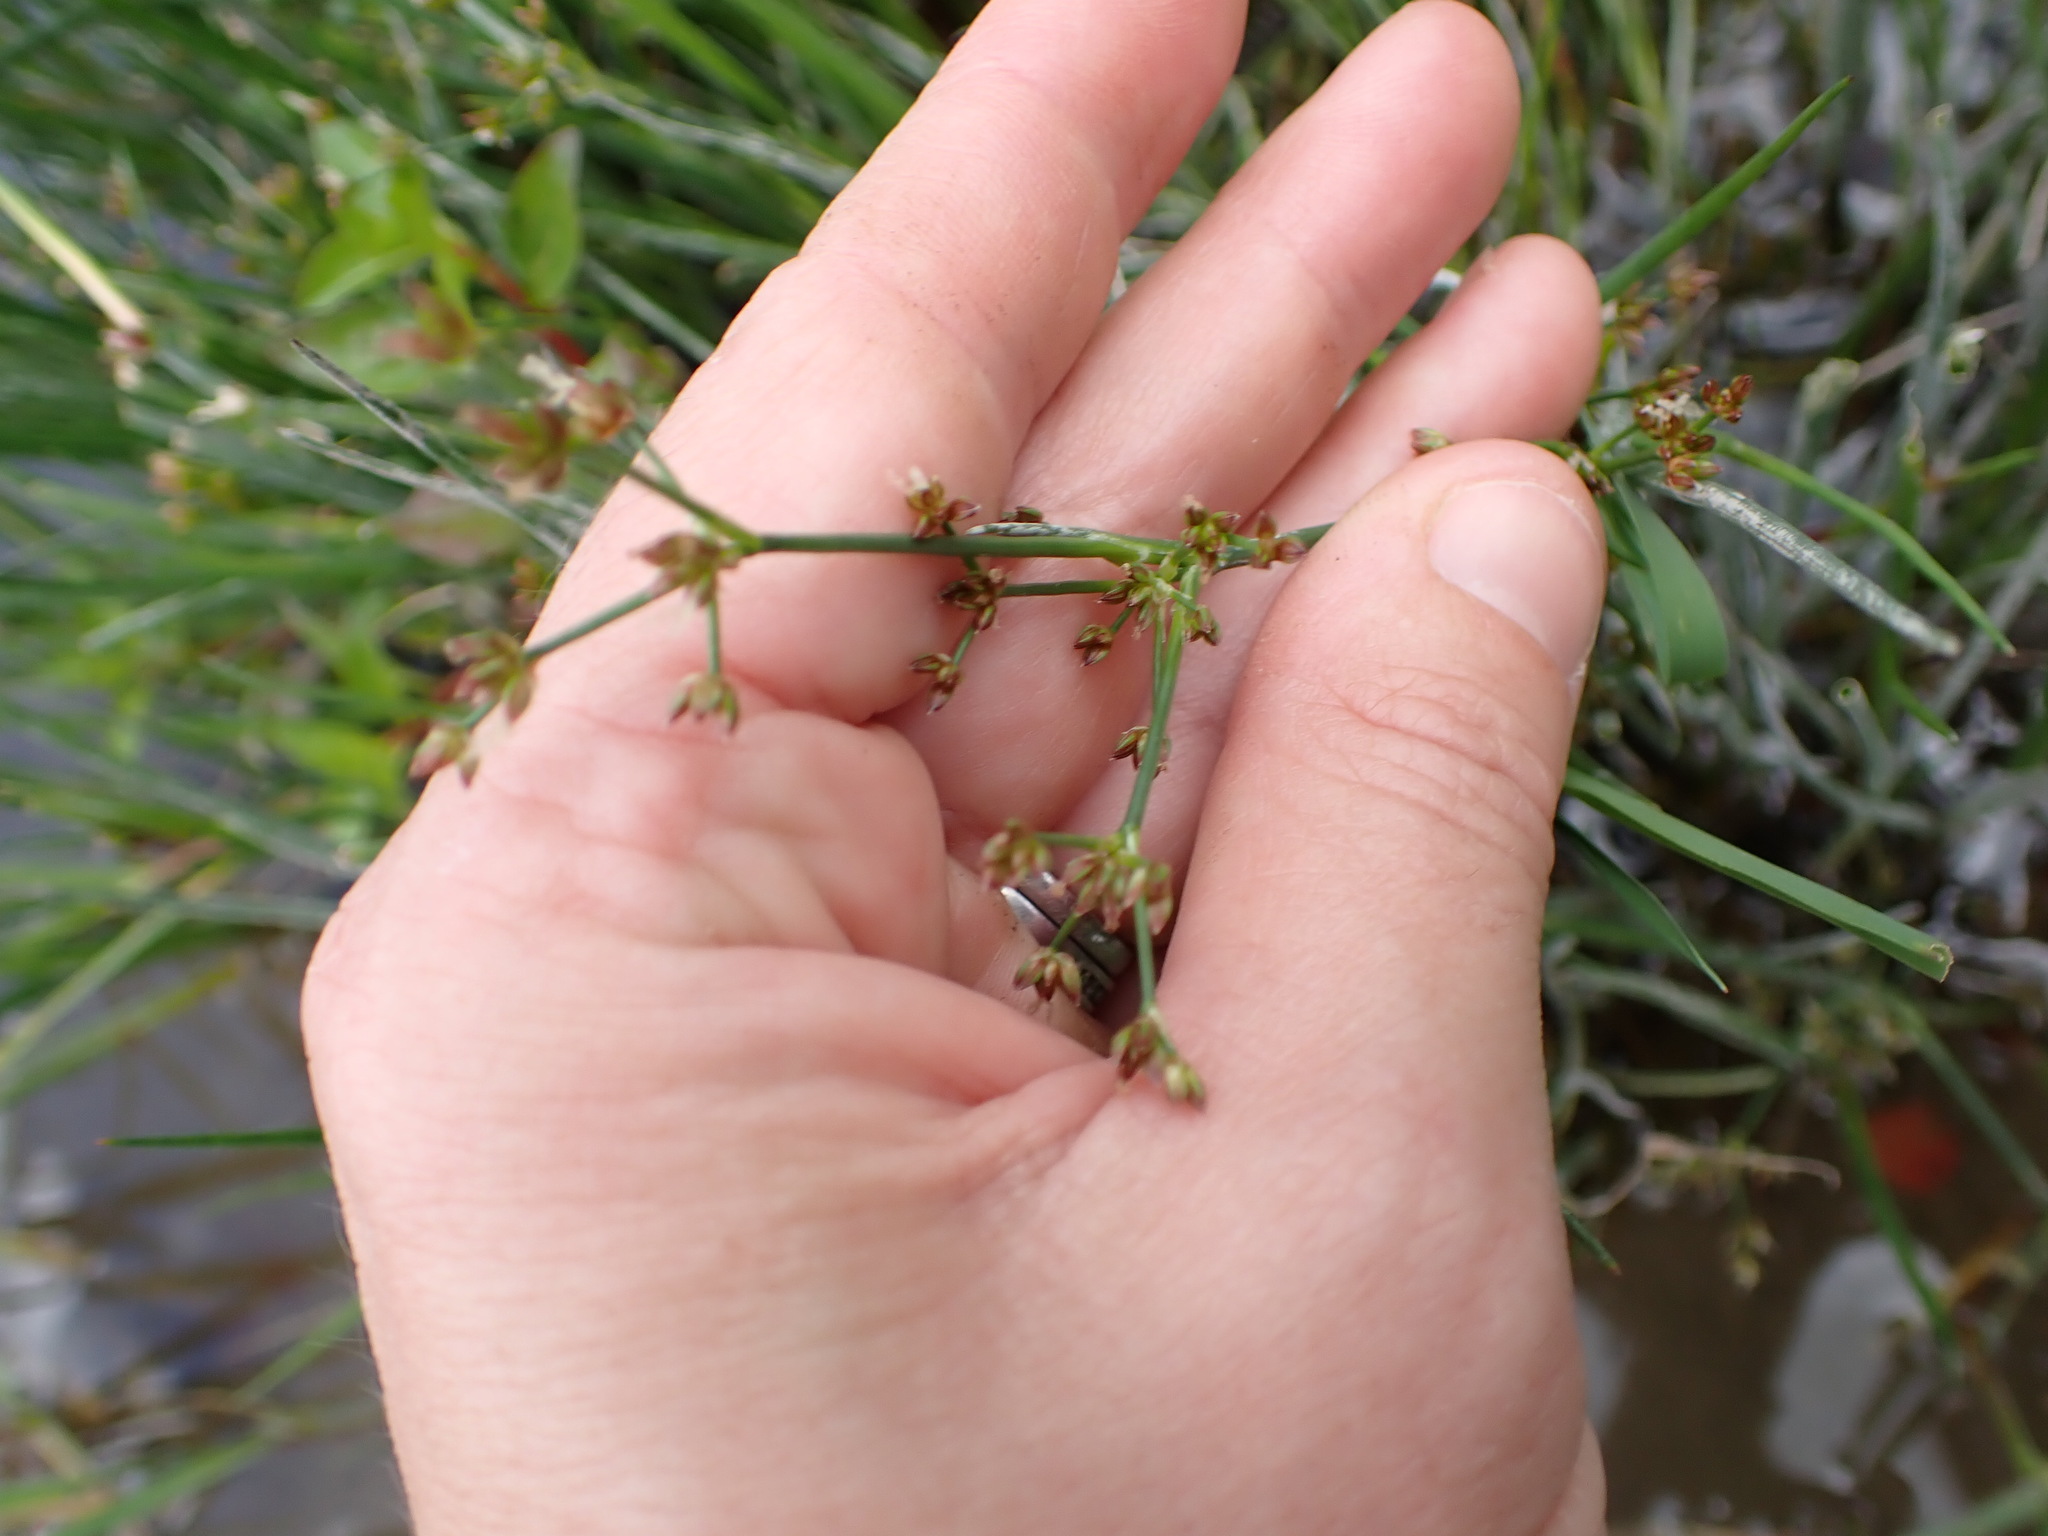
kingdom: Plantae
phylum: Tracheophyta
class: Liliopsida
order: Poales
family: Juncaceae
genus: Juncus
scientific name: Juncus articulatus
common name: Jointed rush
